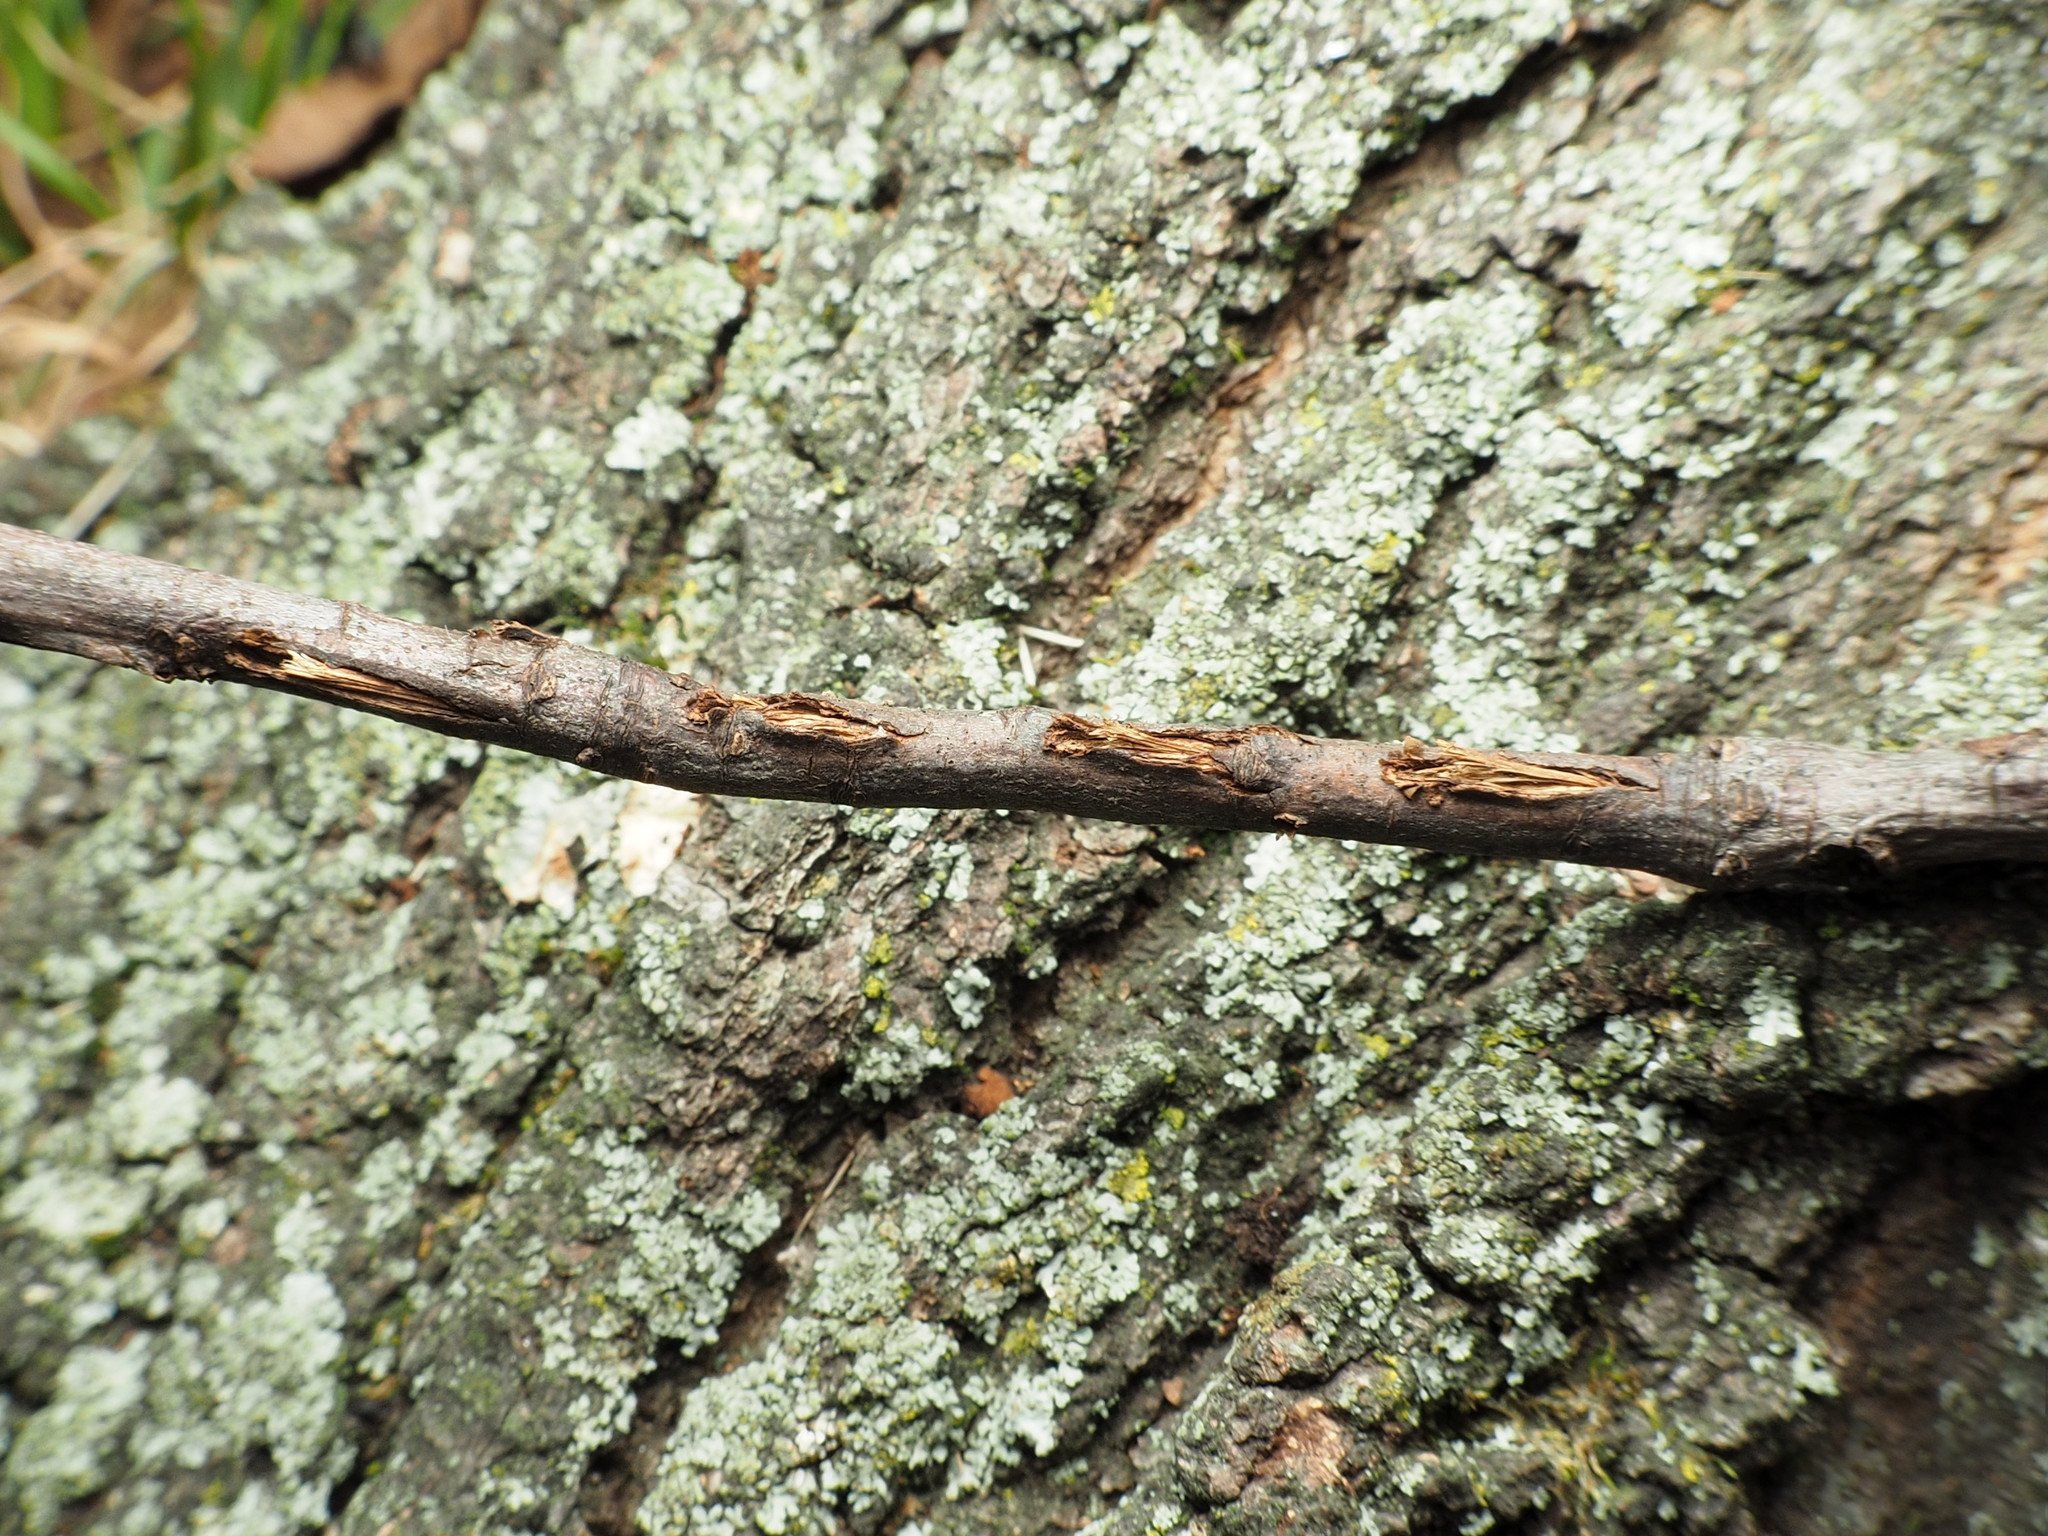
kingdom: Animalia
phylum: Arthropoda
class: Insecta
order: Hemiptera
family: Cicadidae
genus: Magicicada
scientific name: Magicicada
